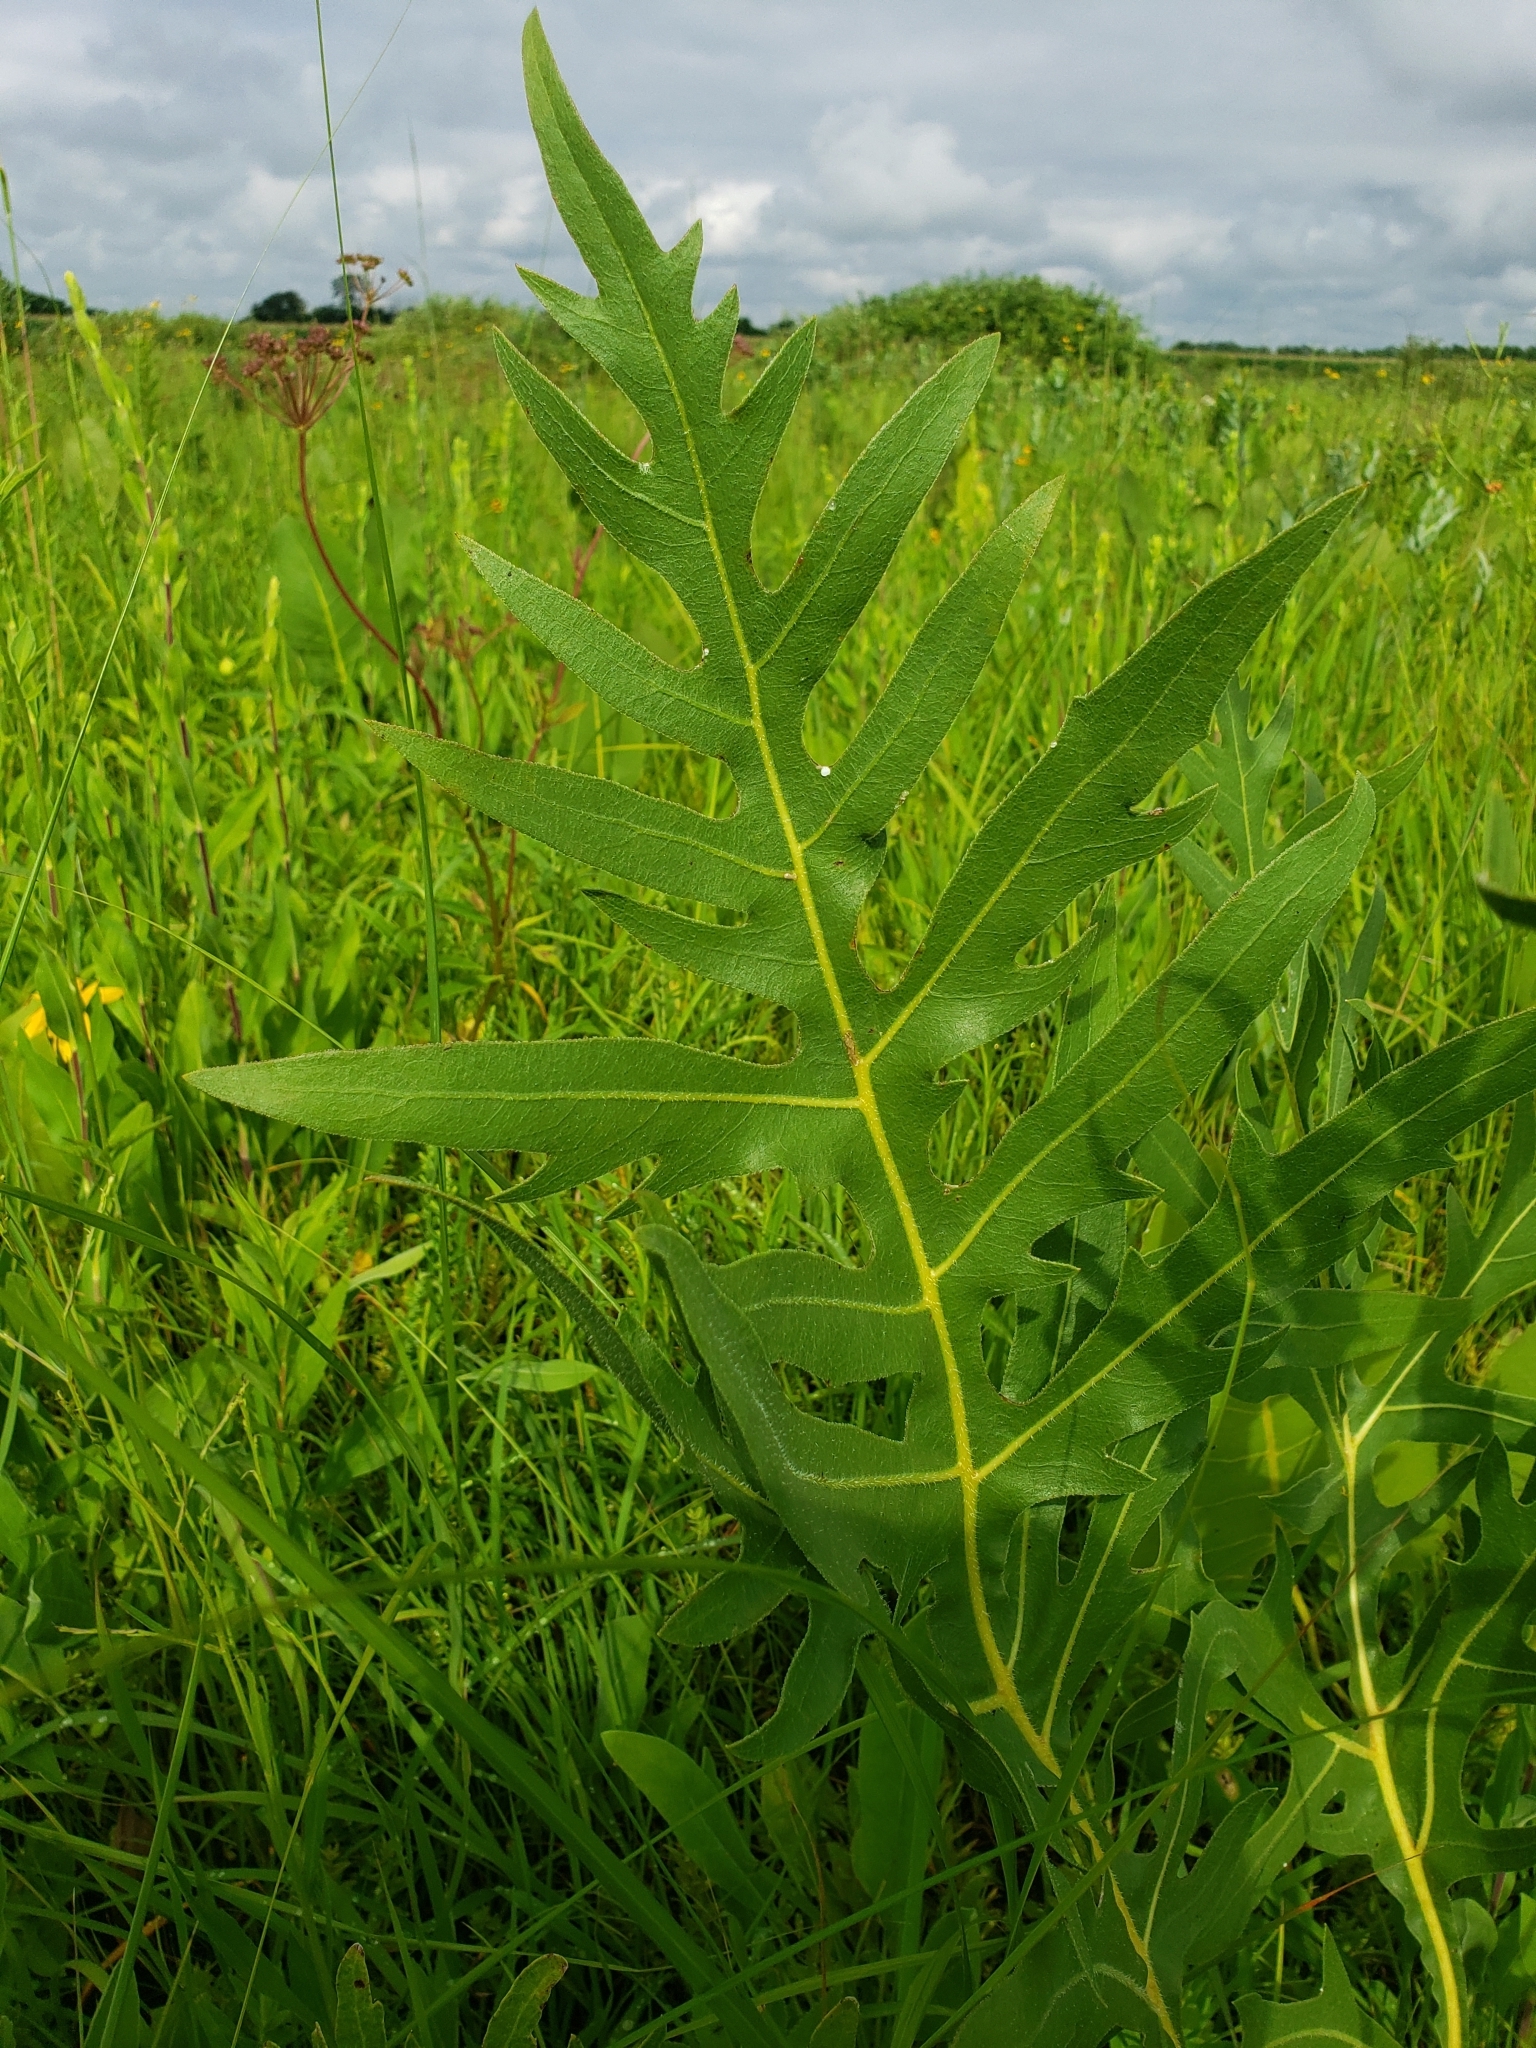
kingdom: Plantae
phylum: Tracheophyta
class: Magnoliopsida
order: Asterales
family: Asteraceae
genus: Silphium
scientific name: Silphium laciniatum
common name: Polarplant
